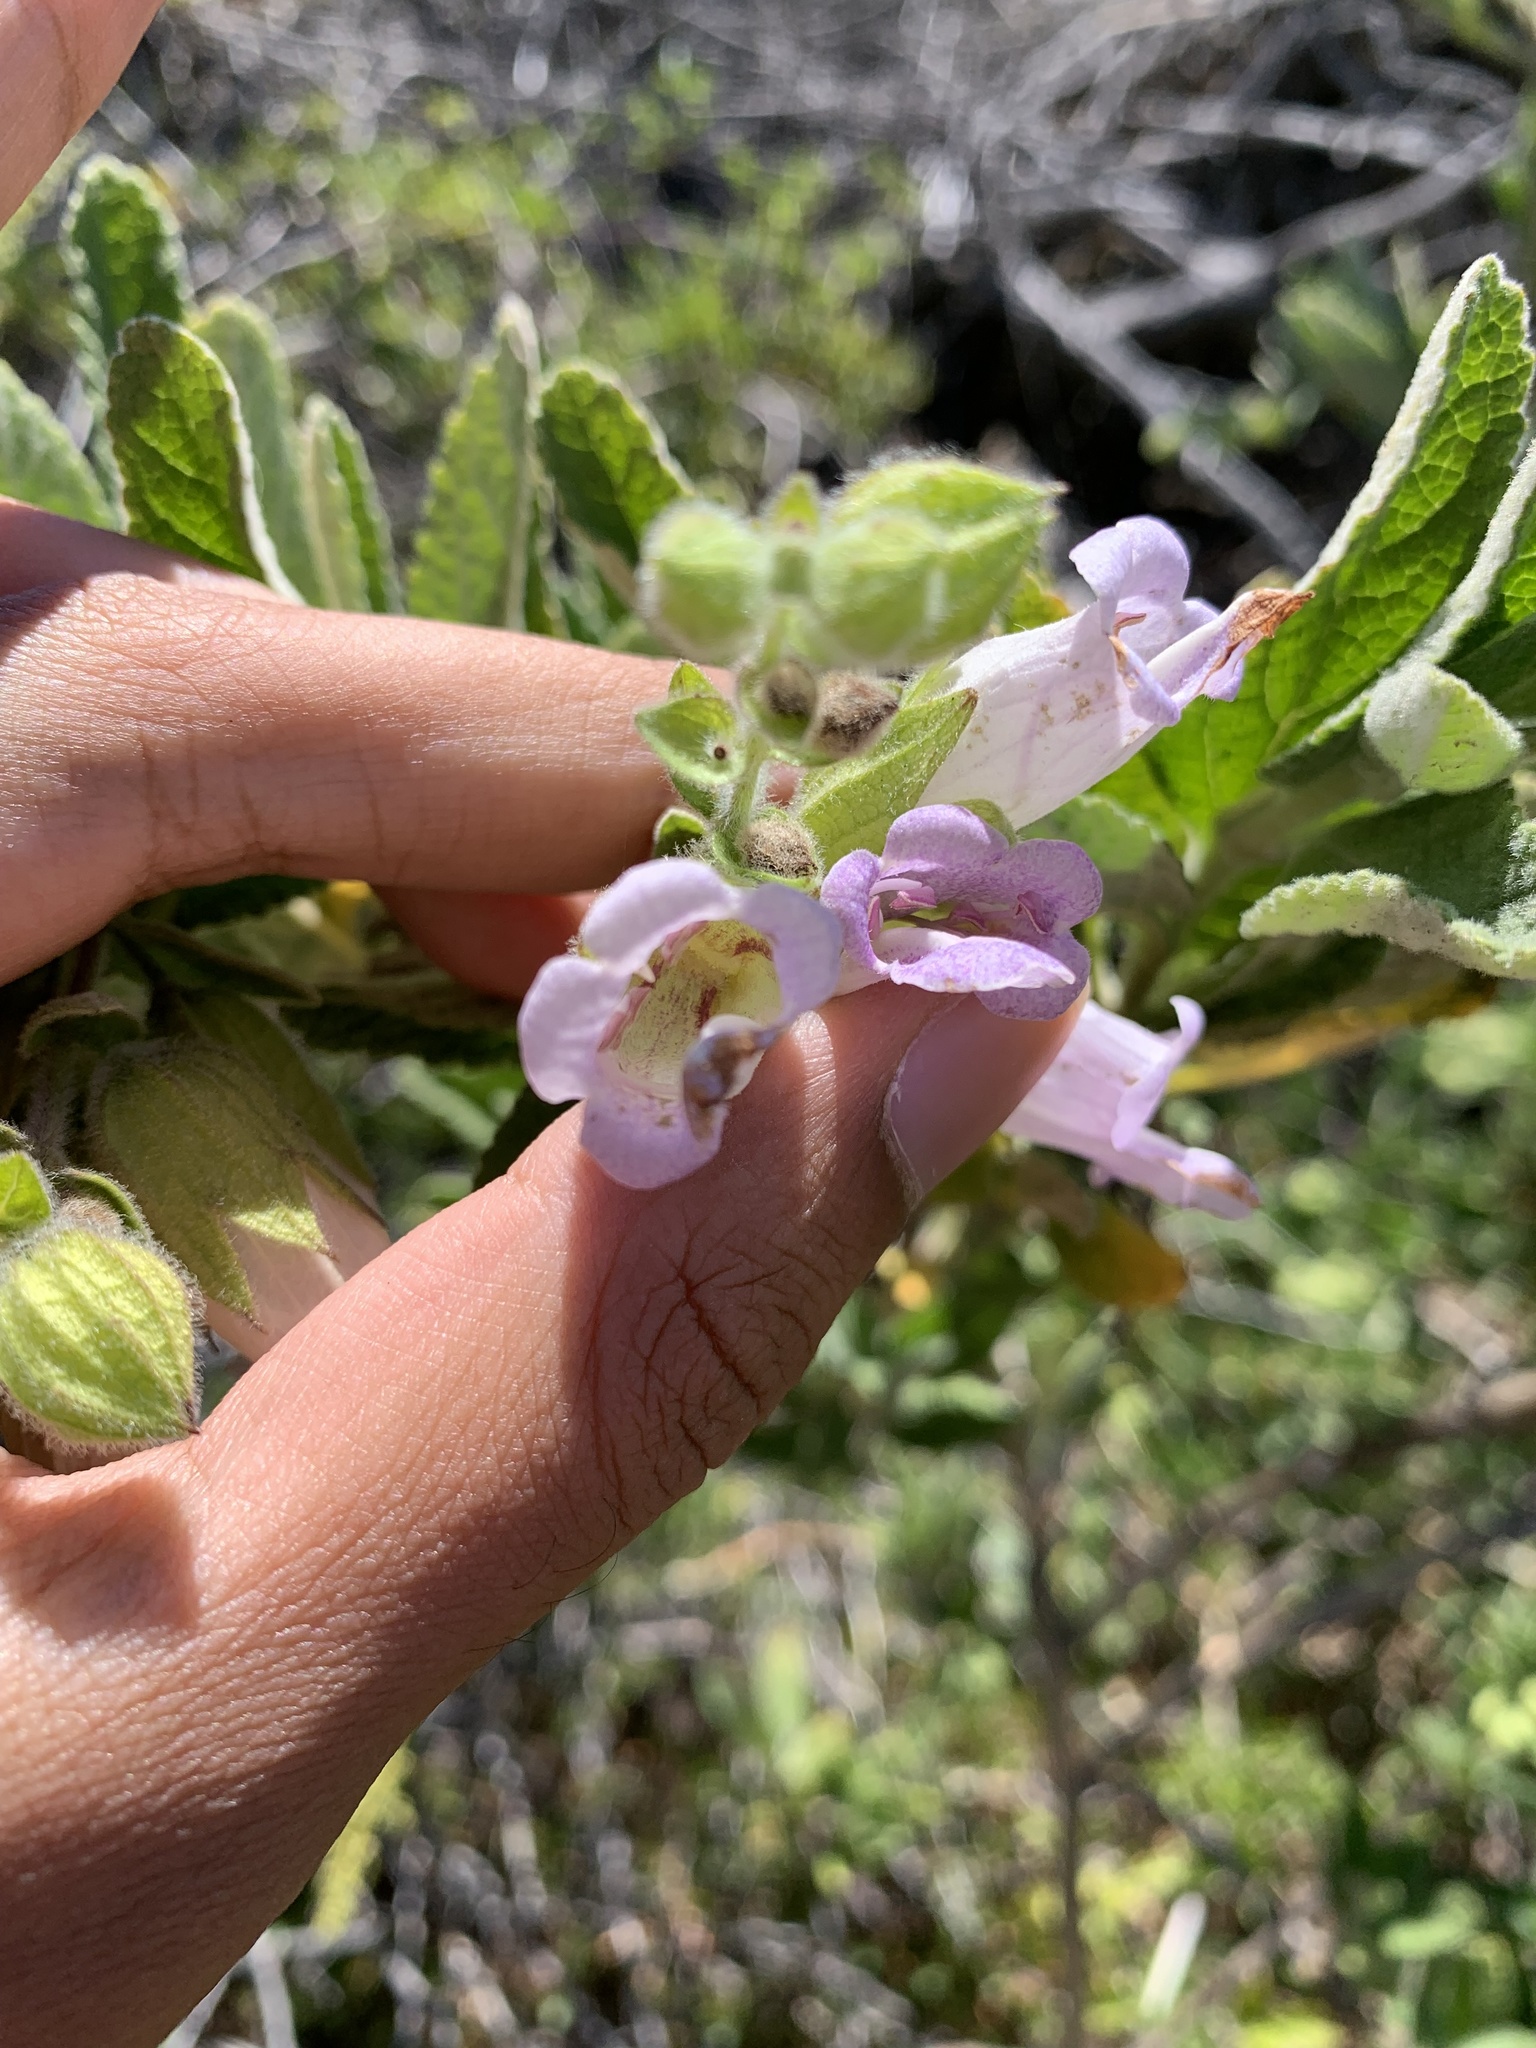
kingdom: Plantae
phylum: Tracheophyta
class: Magnoliopsida
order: Lamiales
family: Lamiaceae
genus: Lepechinia
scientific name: Lepechinia calycina
